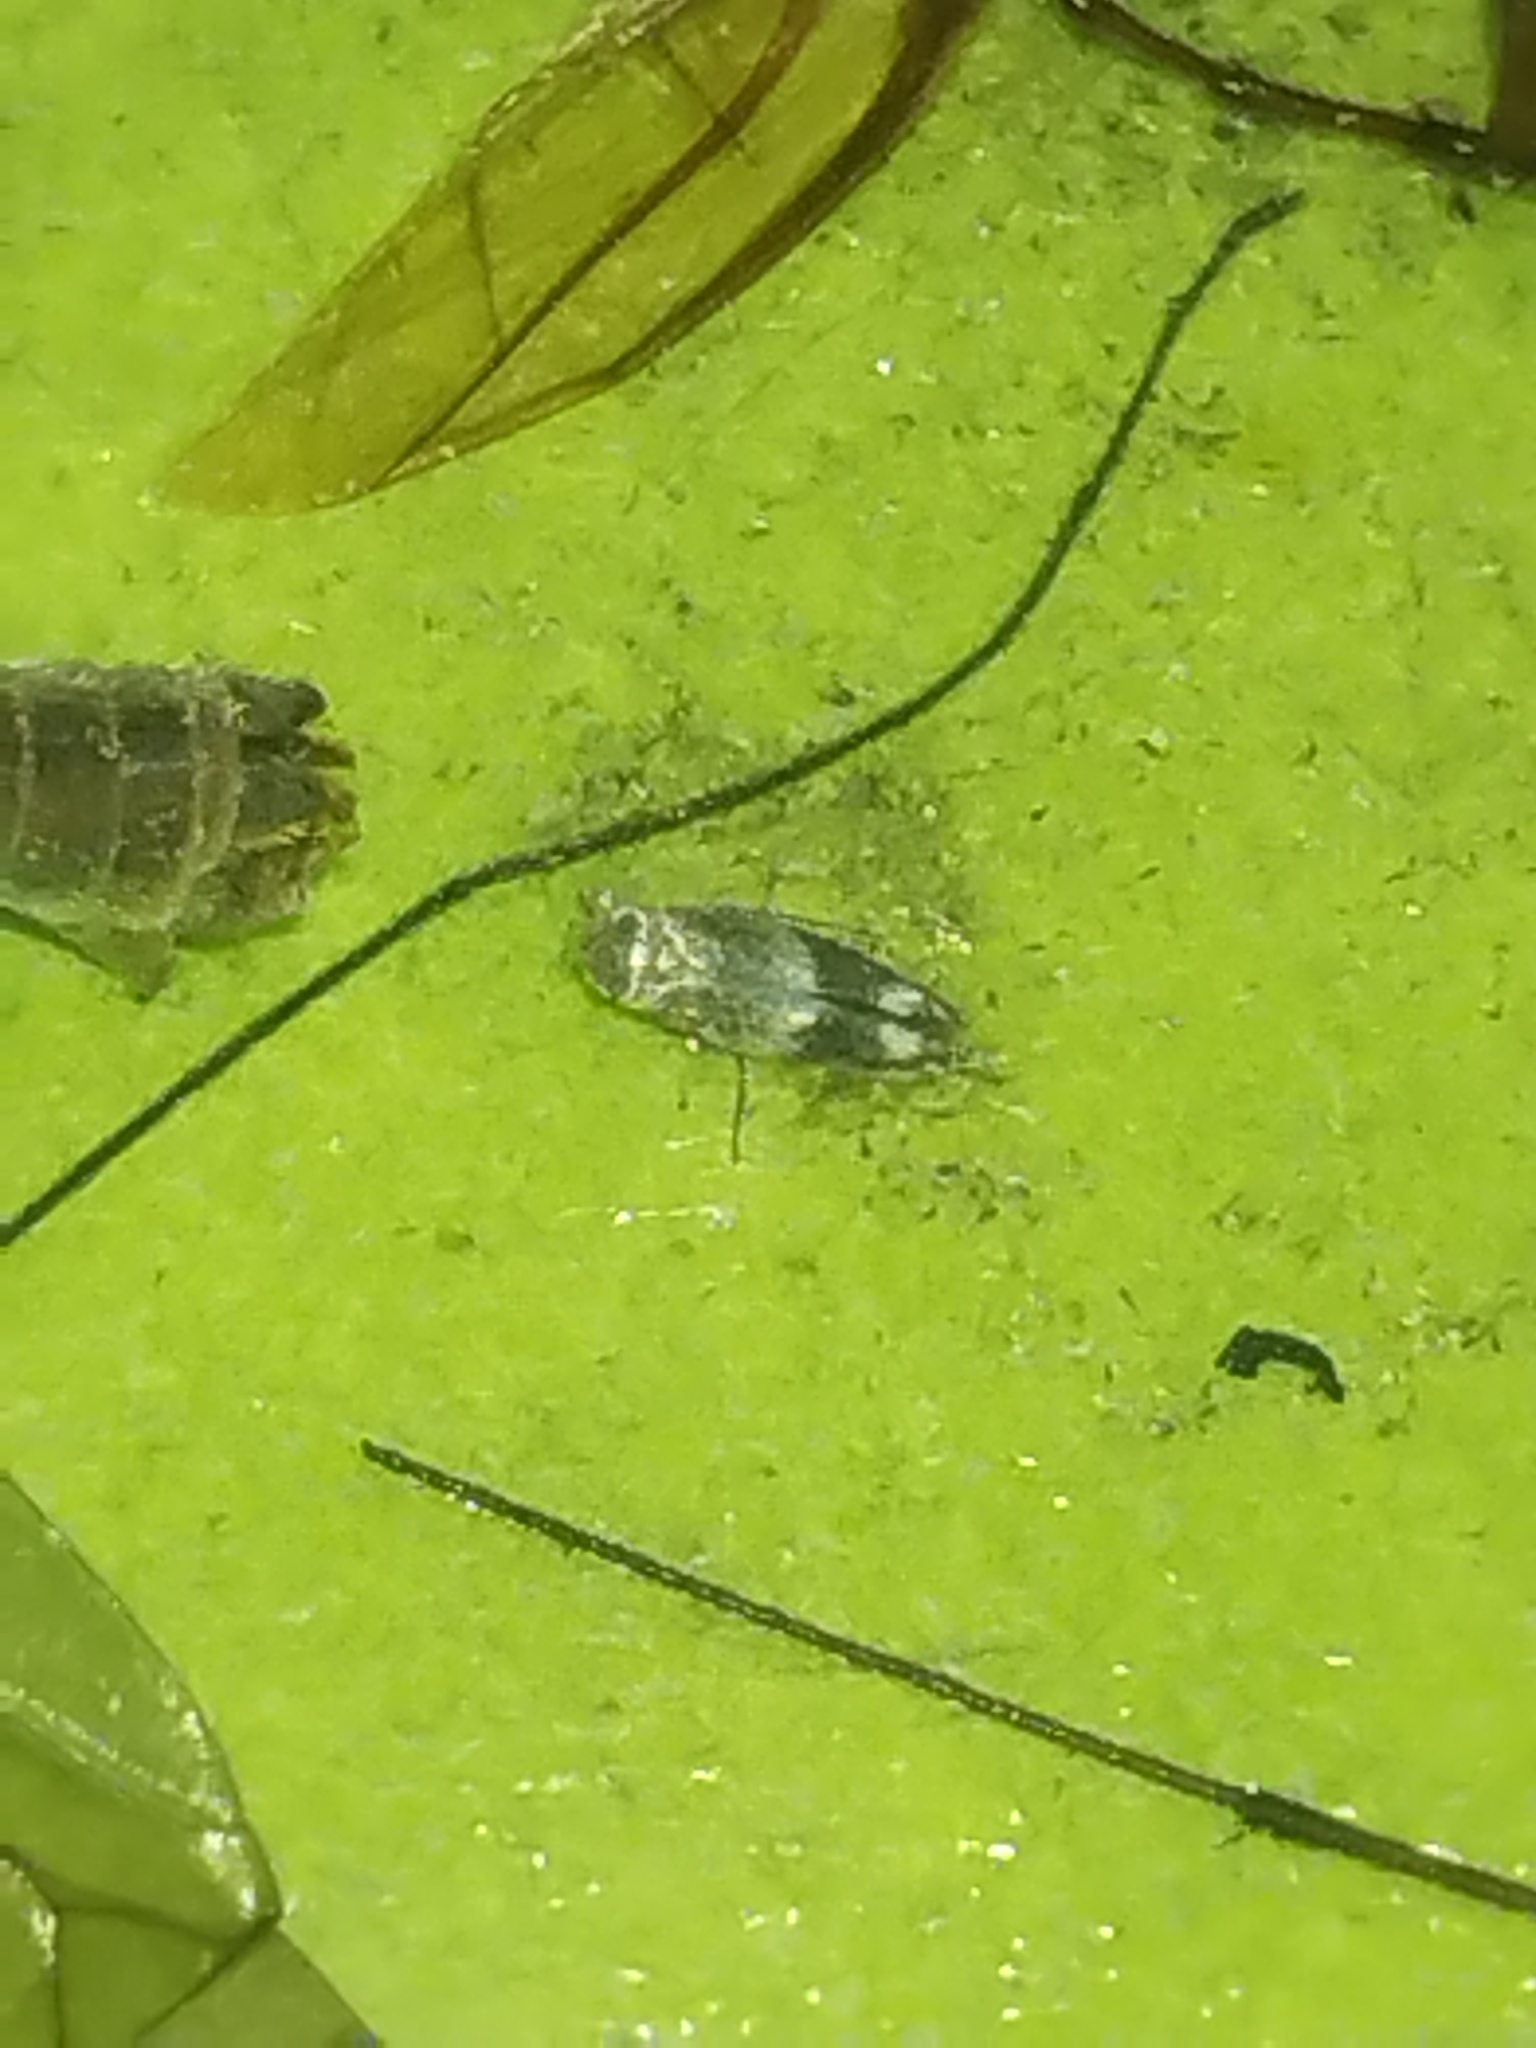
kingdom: Animalia
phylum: Arthropoda
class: Insecta
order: Hemiptera
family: Aphrophoridae
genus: Philaenus
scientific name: Philaenus spumarius
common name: Meadow spittlebug
